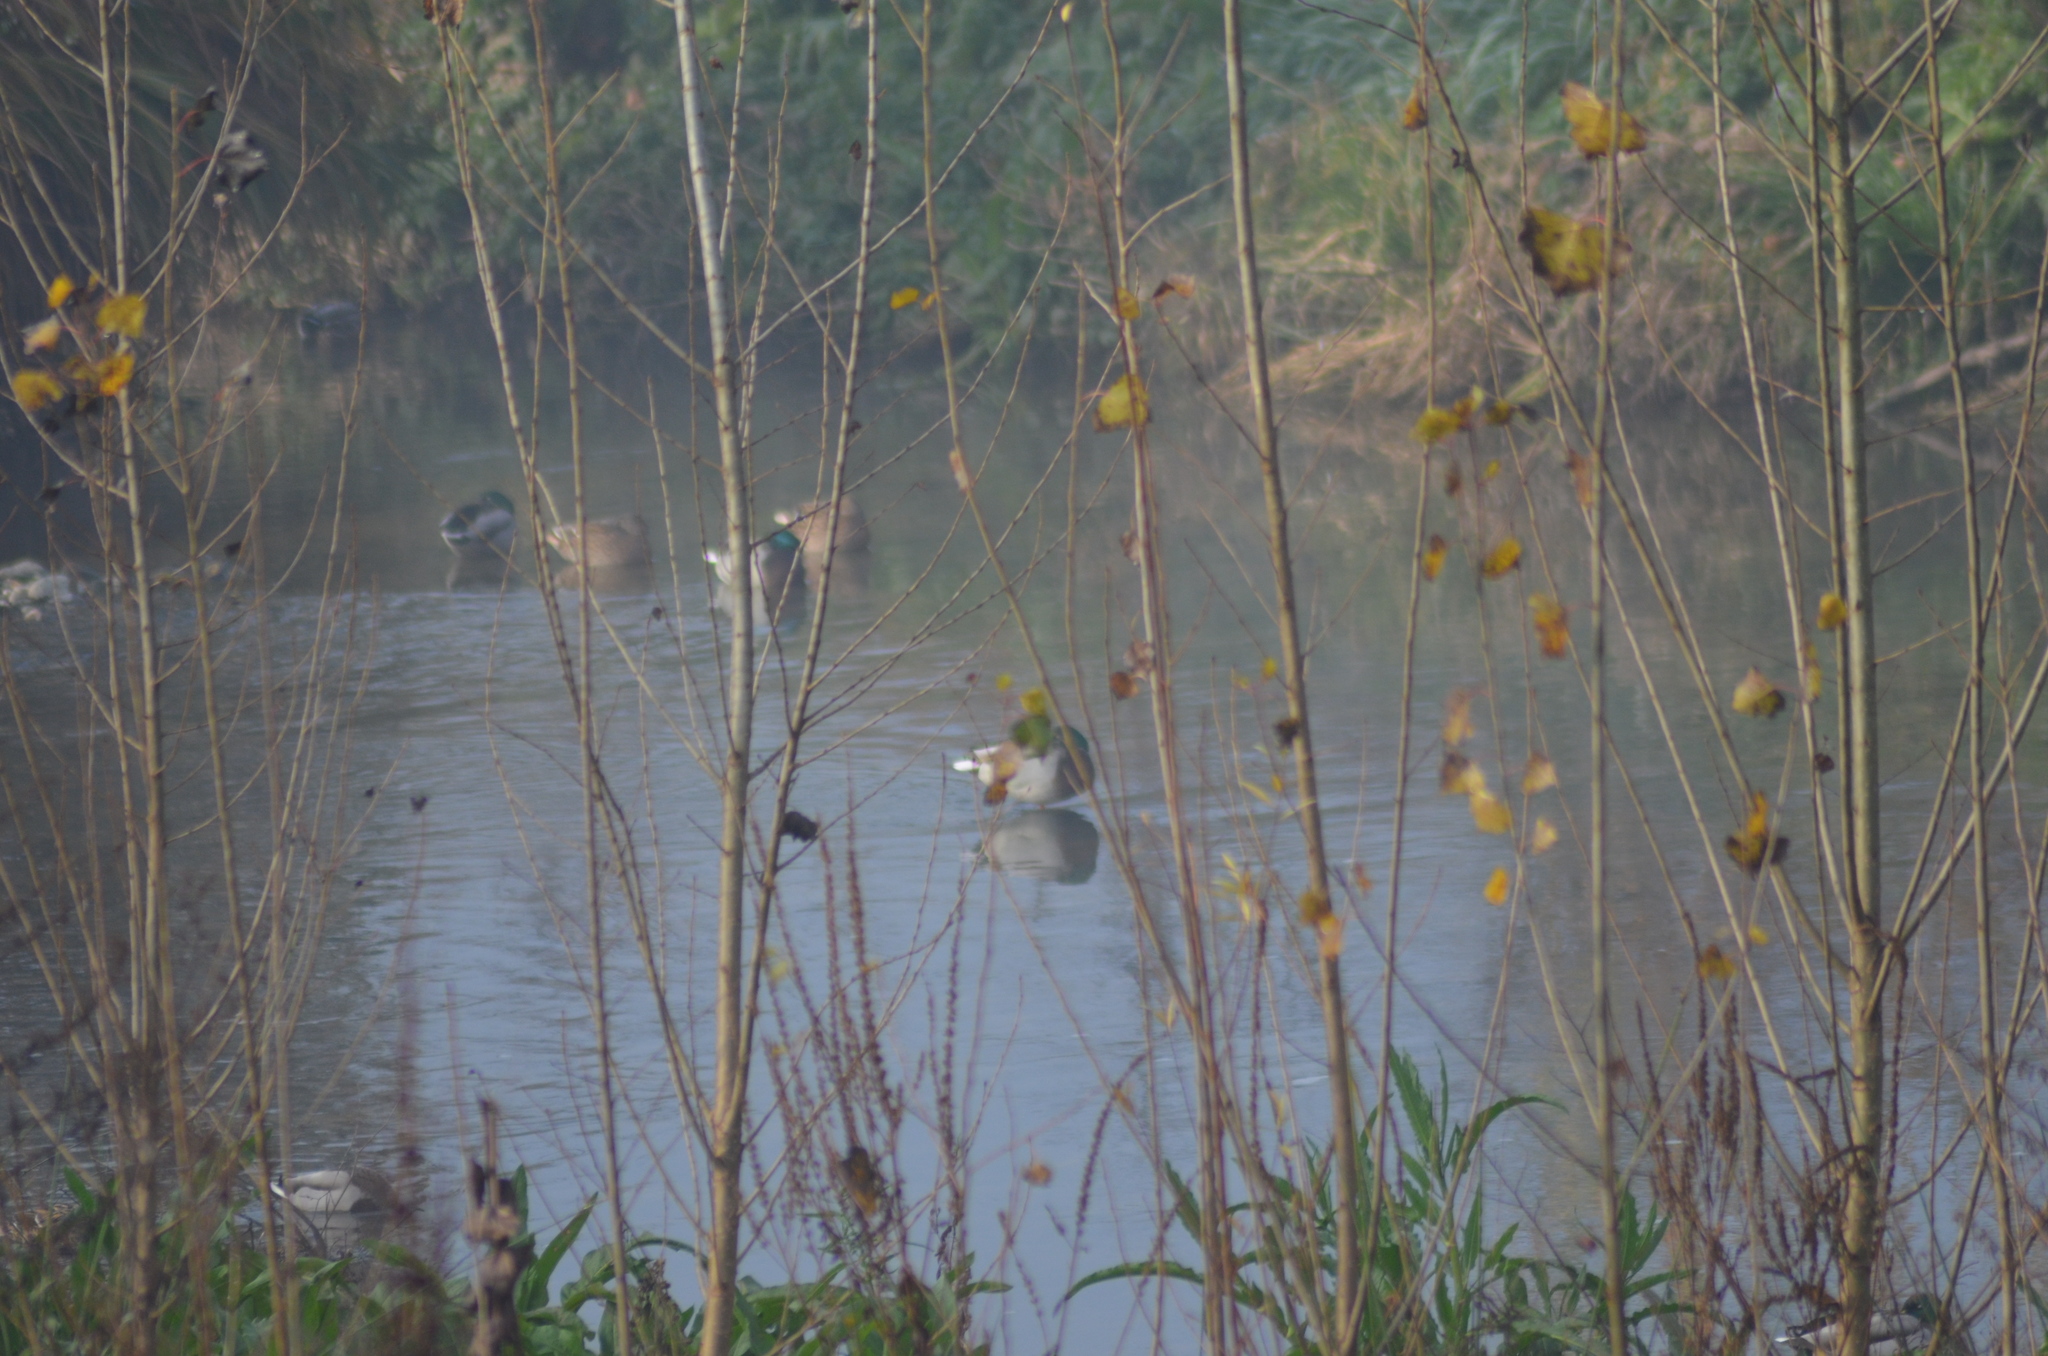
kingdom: Animalia
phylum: Chordata
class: Aves
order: Anseriformes
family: Anatidae
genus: Anas
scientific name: Anas platyrhynchos
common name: Mallard
